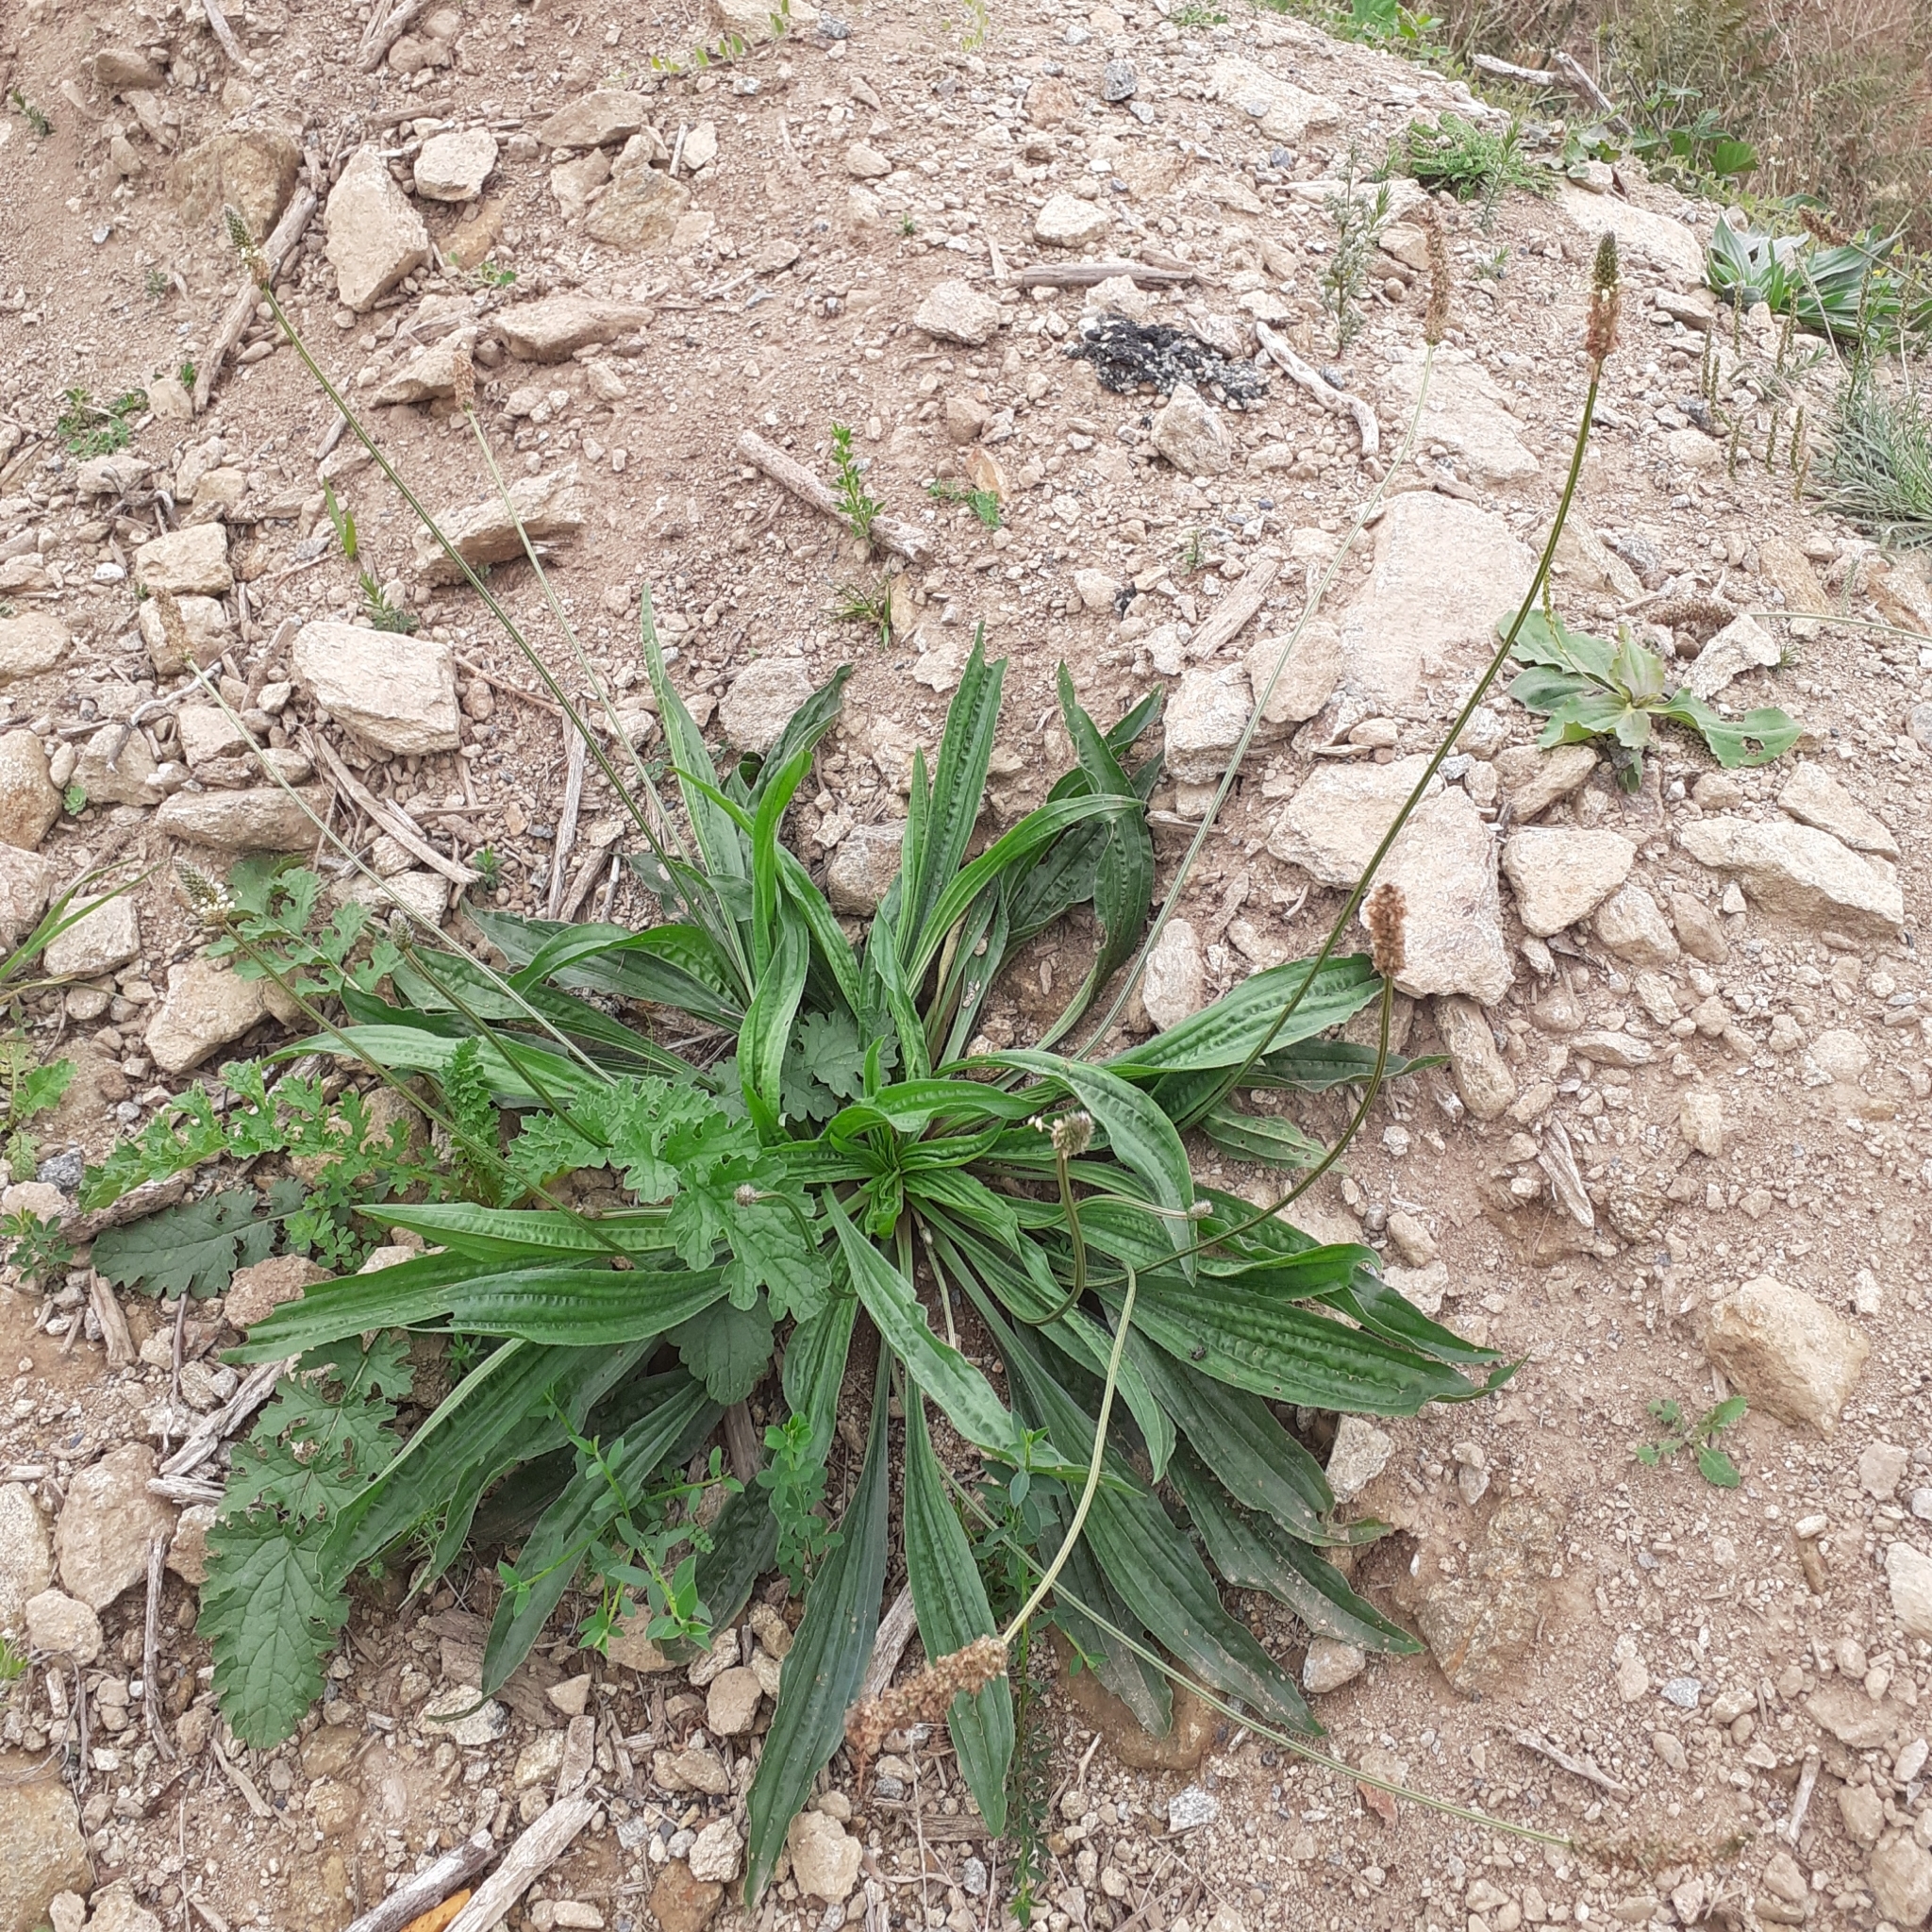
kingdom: Plantae
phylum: Tracheophyta
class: Magnoliopsida
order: Lamiales
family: Plantaginaceae
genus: Plantago
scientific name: Plantago lanceolata
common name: Ribwort plantain
